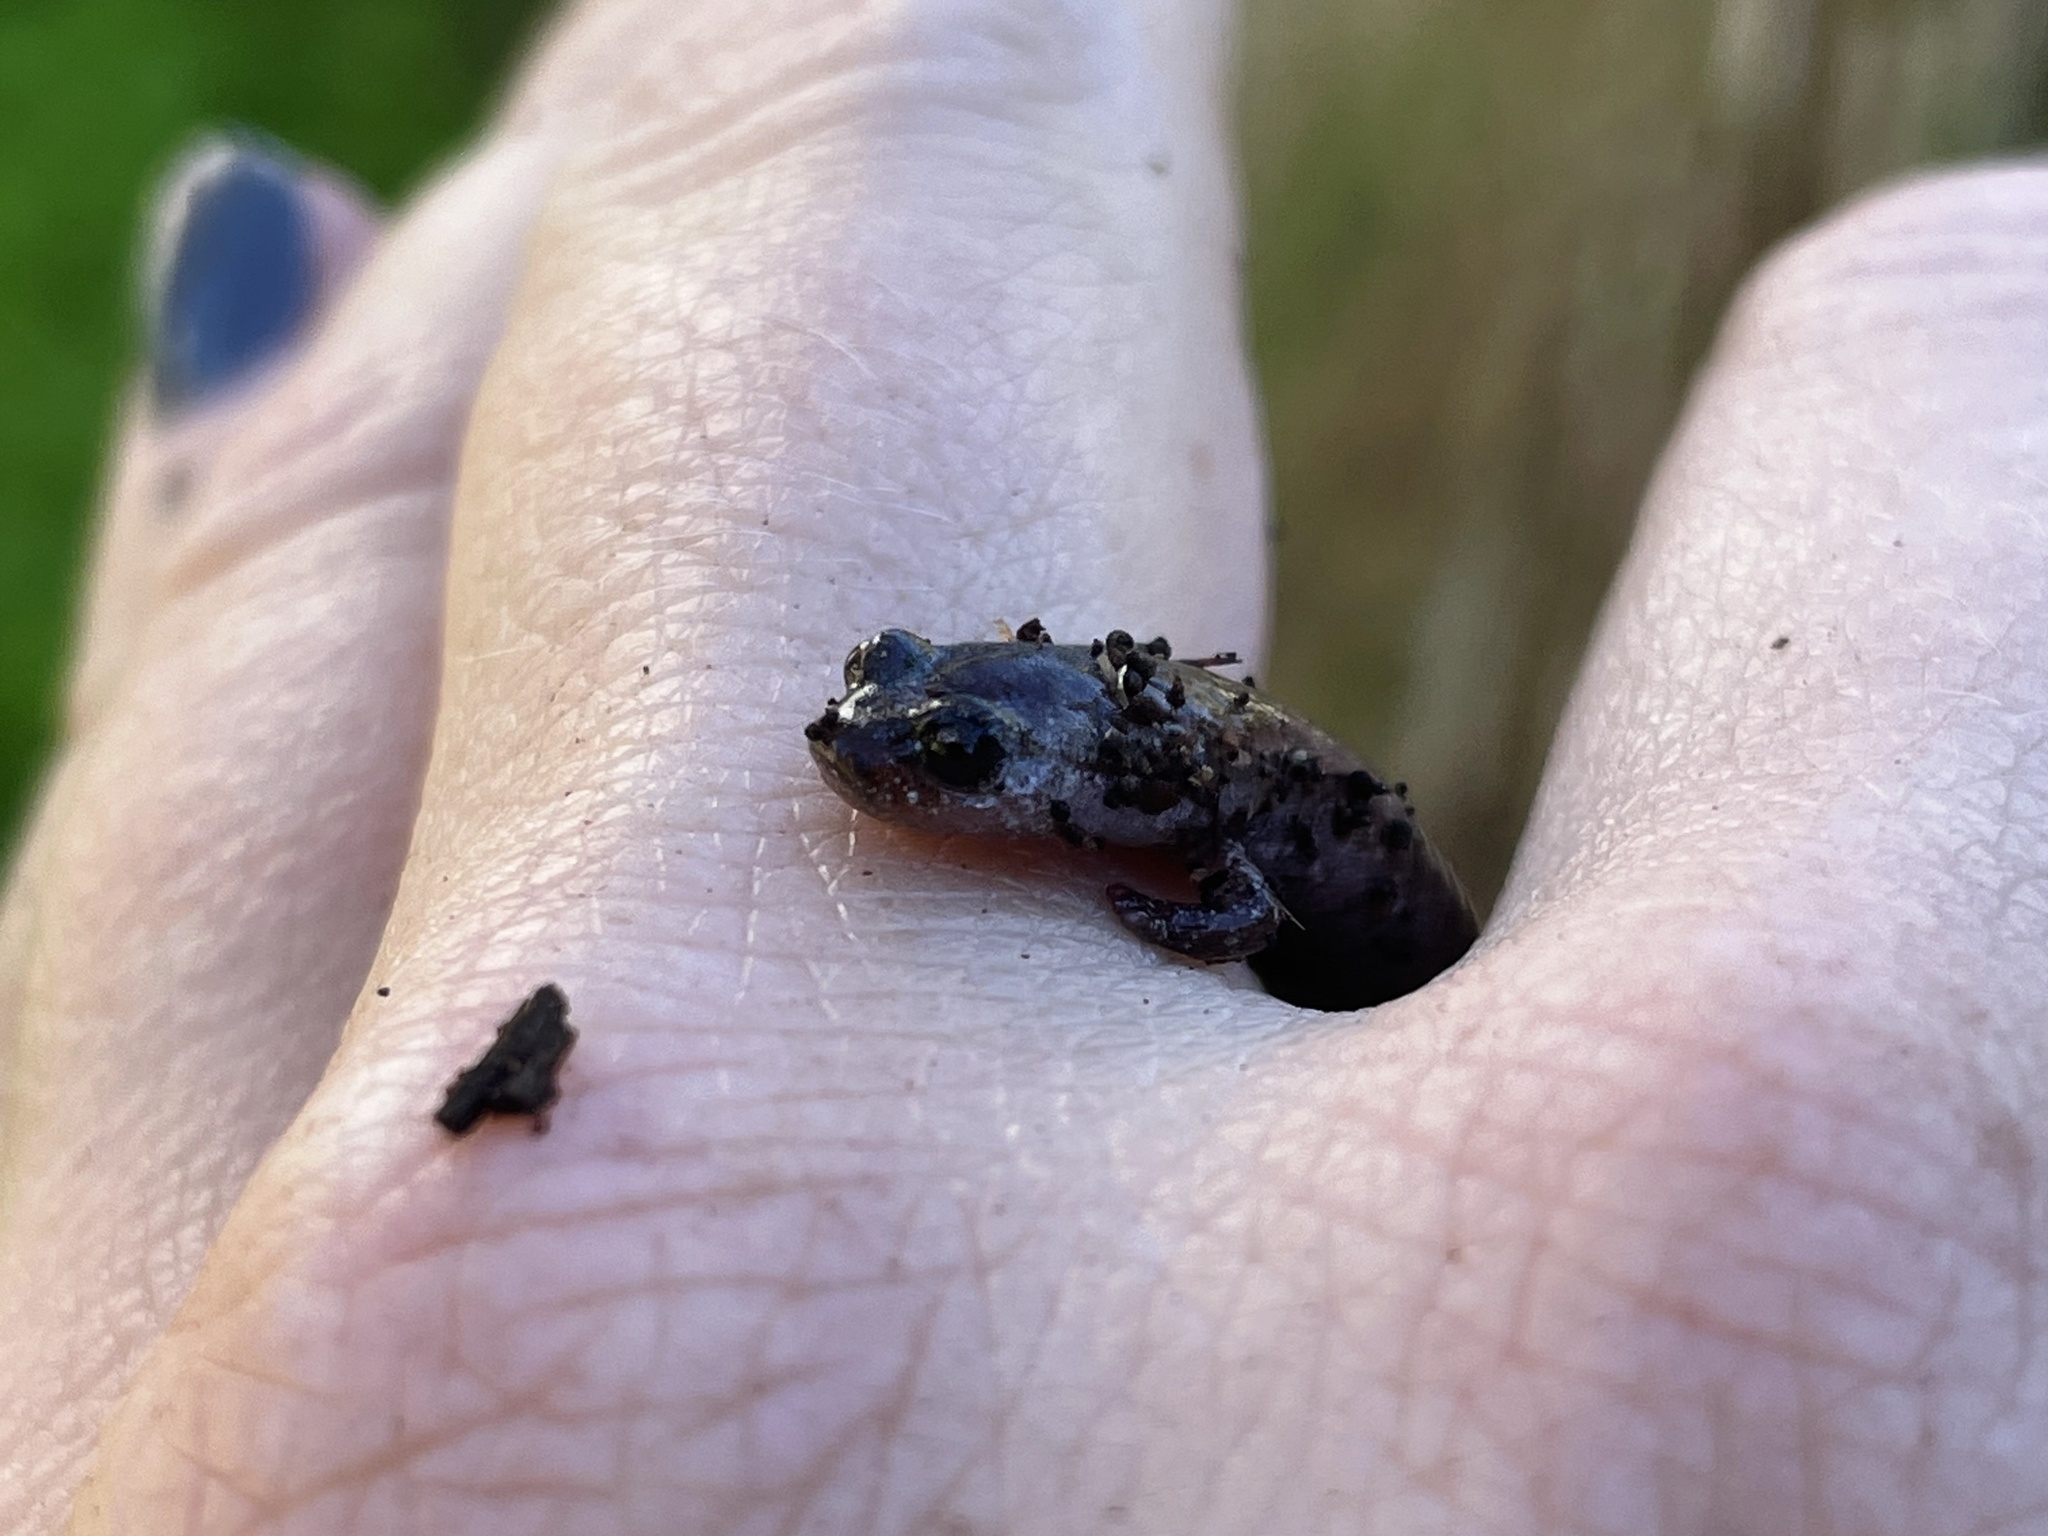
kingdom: Animalia
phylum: Chordata
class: Amphibia
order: Caudata
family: Plethodontidae
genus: Batrachoseps
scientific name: Batrachoseps major
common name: Garden slender salamander
